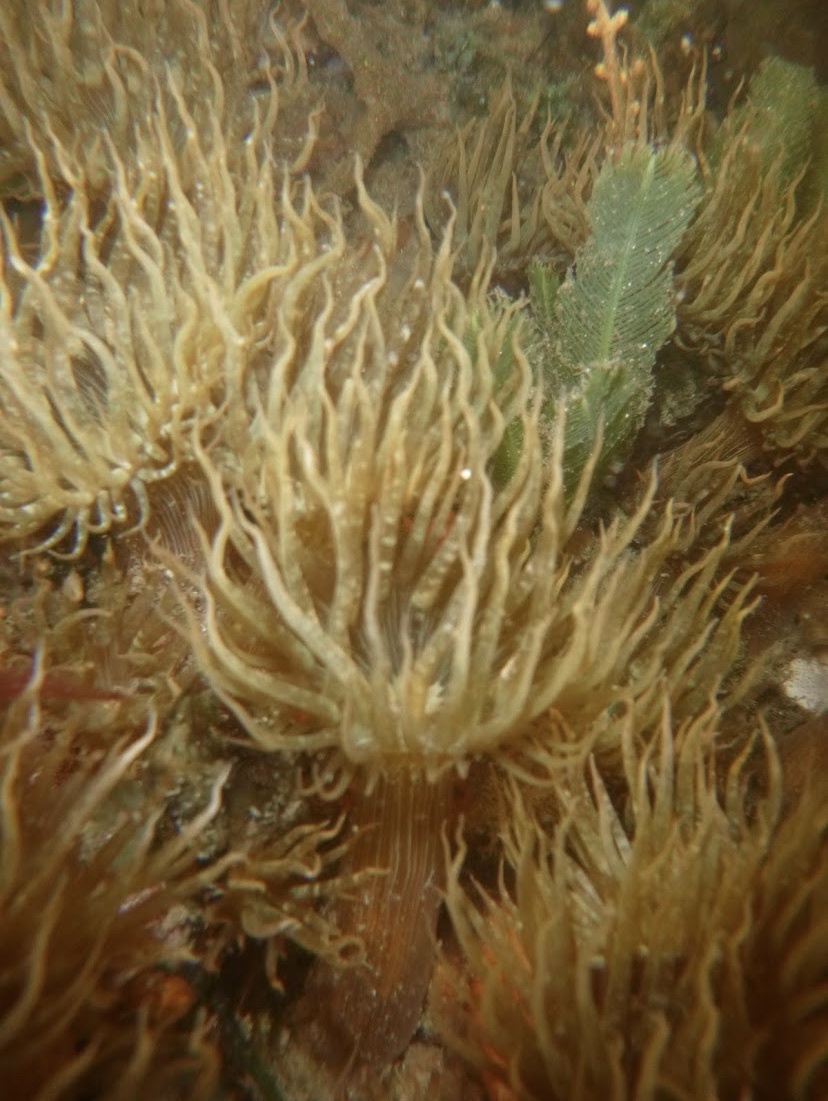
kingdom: Animalia
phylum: Cnidaria
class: Anthozoa
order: Actiniaria
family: Aiptasiidae
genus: Exaiptasia
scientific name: Exaiptasia diaphana
